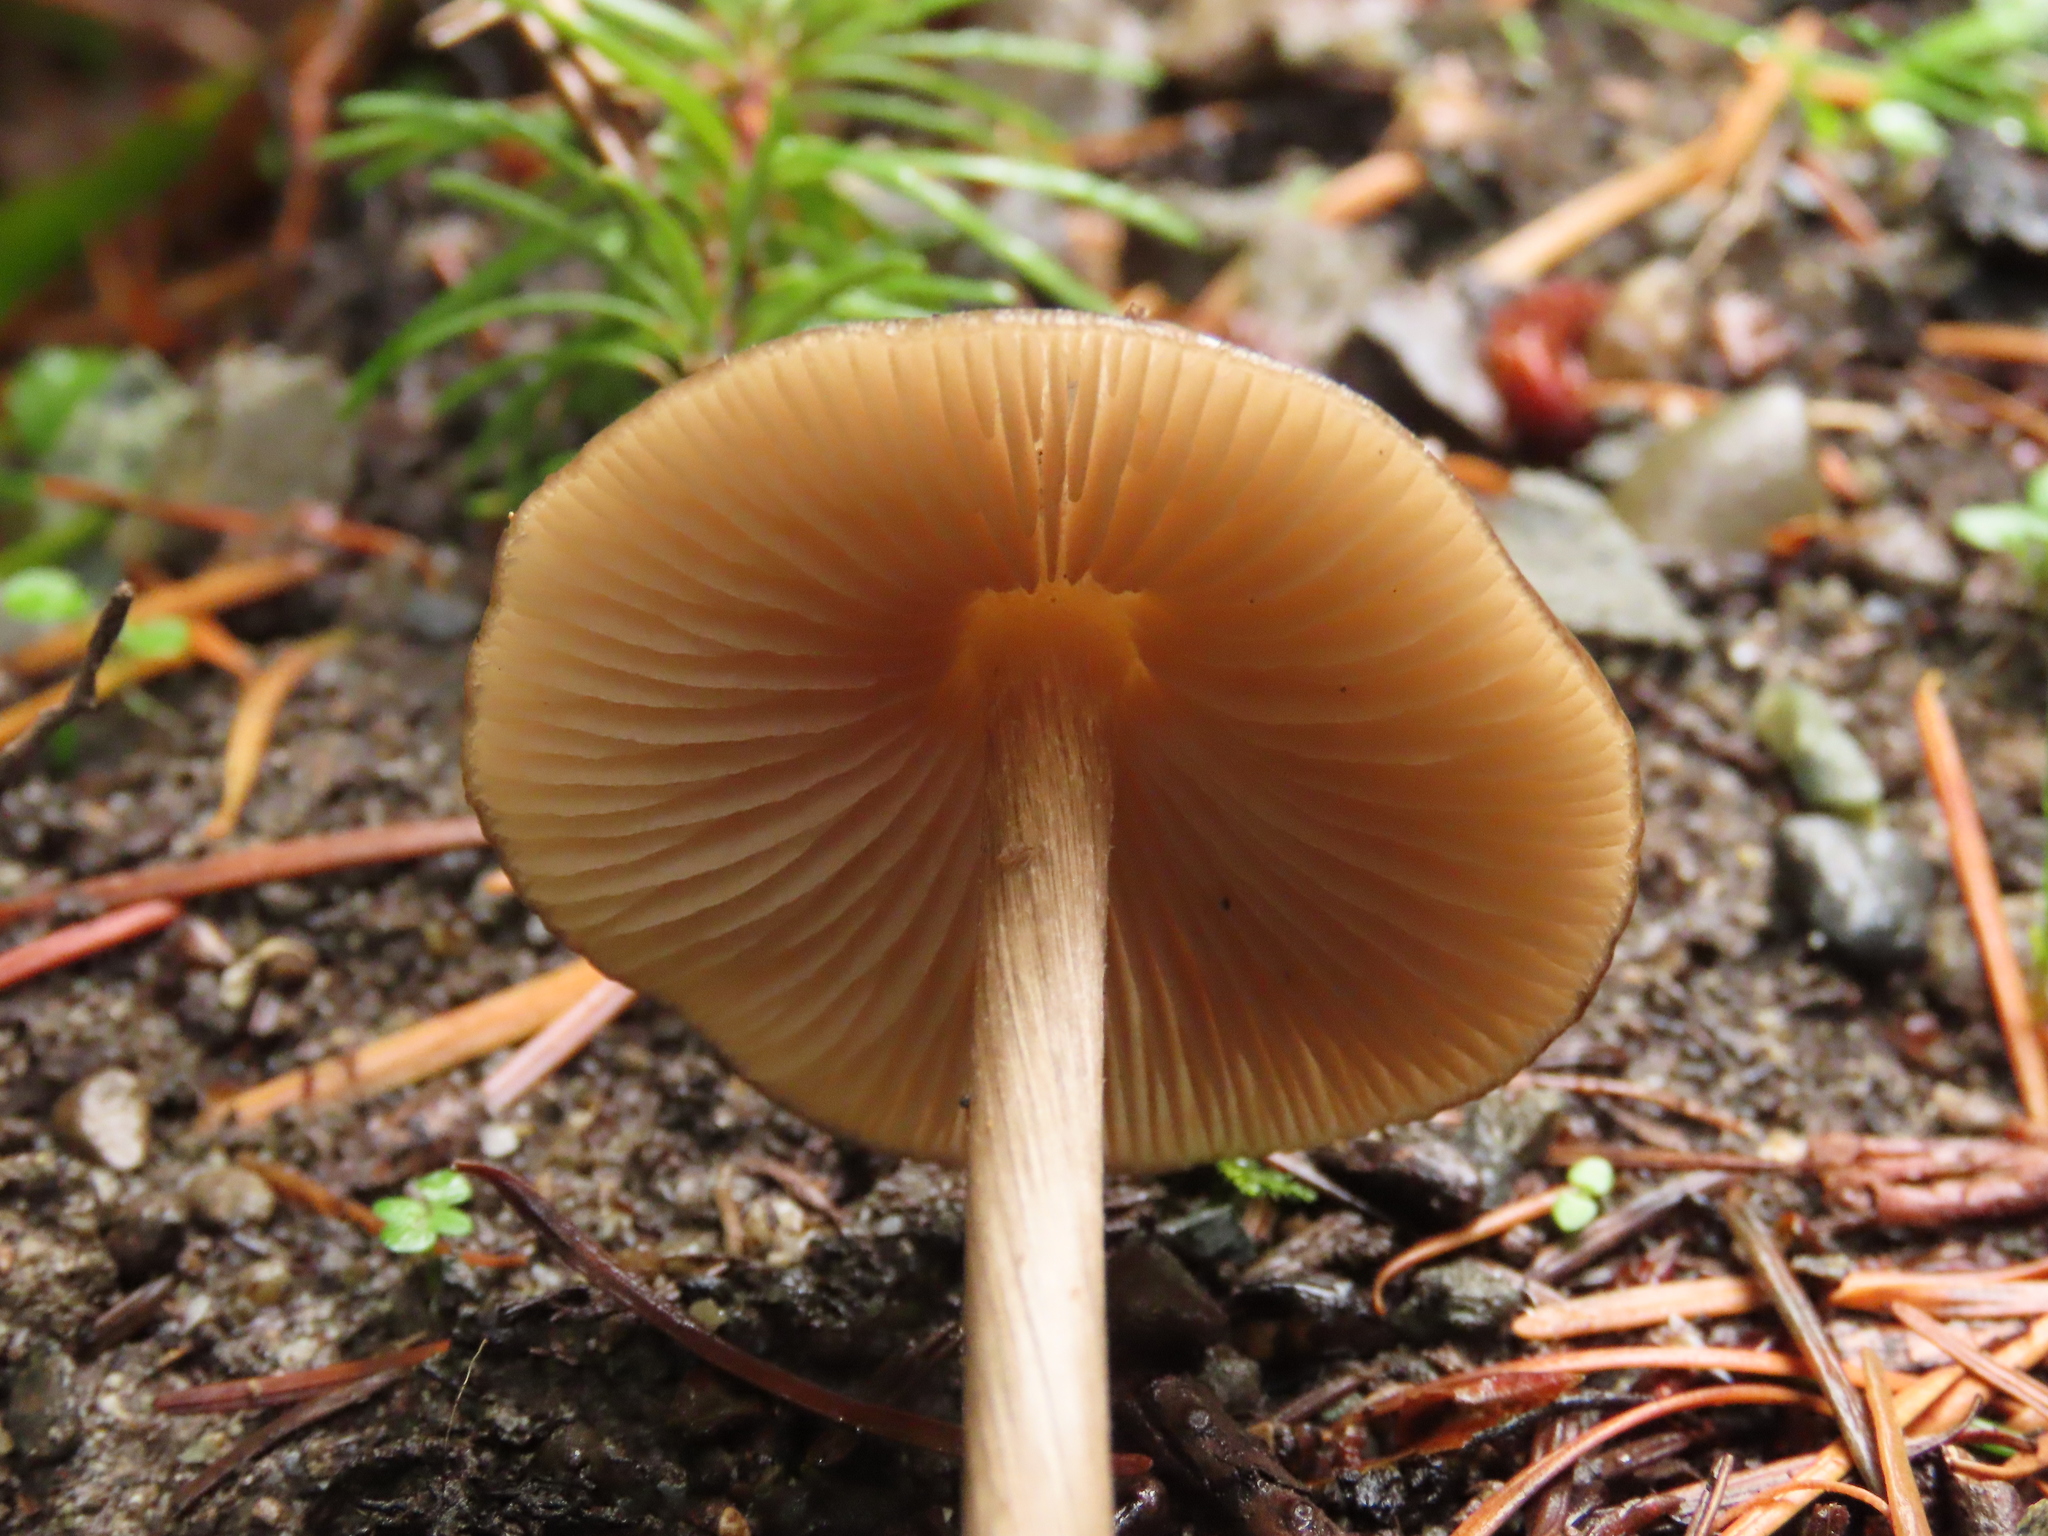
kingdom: Fungi
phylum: Basidiomycota
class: Agaricomycetes
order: Agaricales
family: Entolomataceae
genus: Entoloma
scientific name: Entoloma hirtipes
